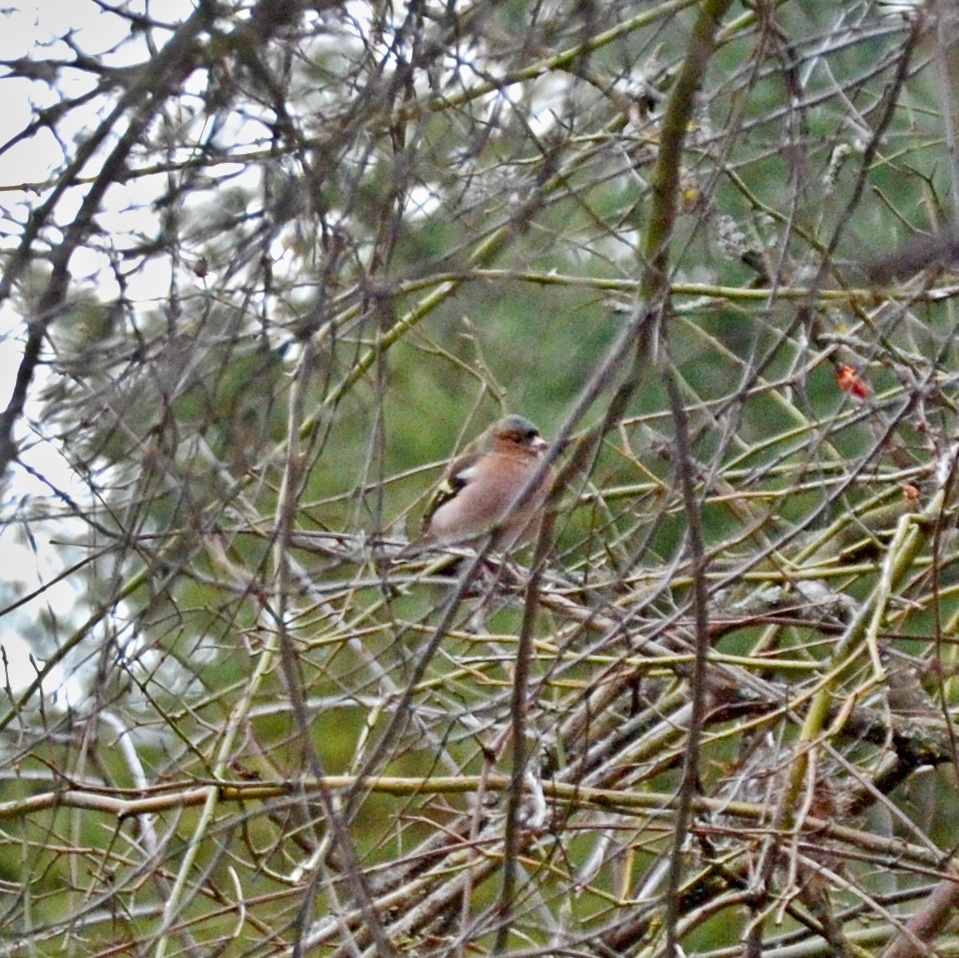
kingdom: Animalia
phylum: Chordata
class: Aves
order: Passeriformes
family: Fringillidae
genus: Fringilla
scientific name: Fringilla coelebs
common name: Common chaffinch
